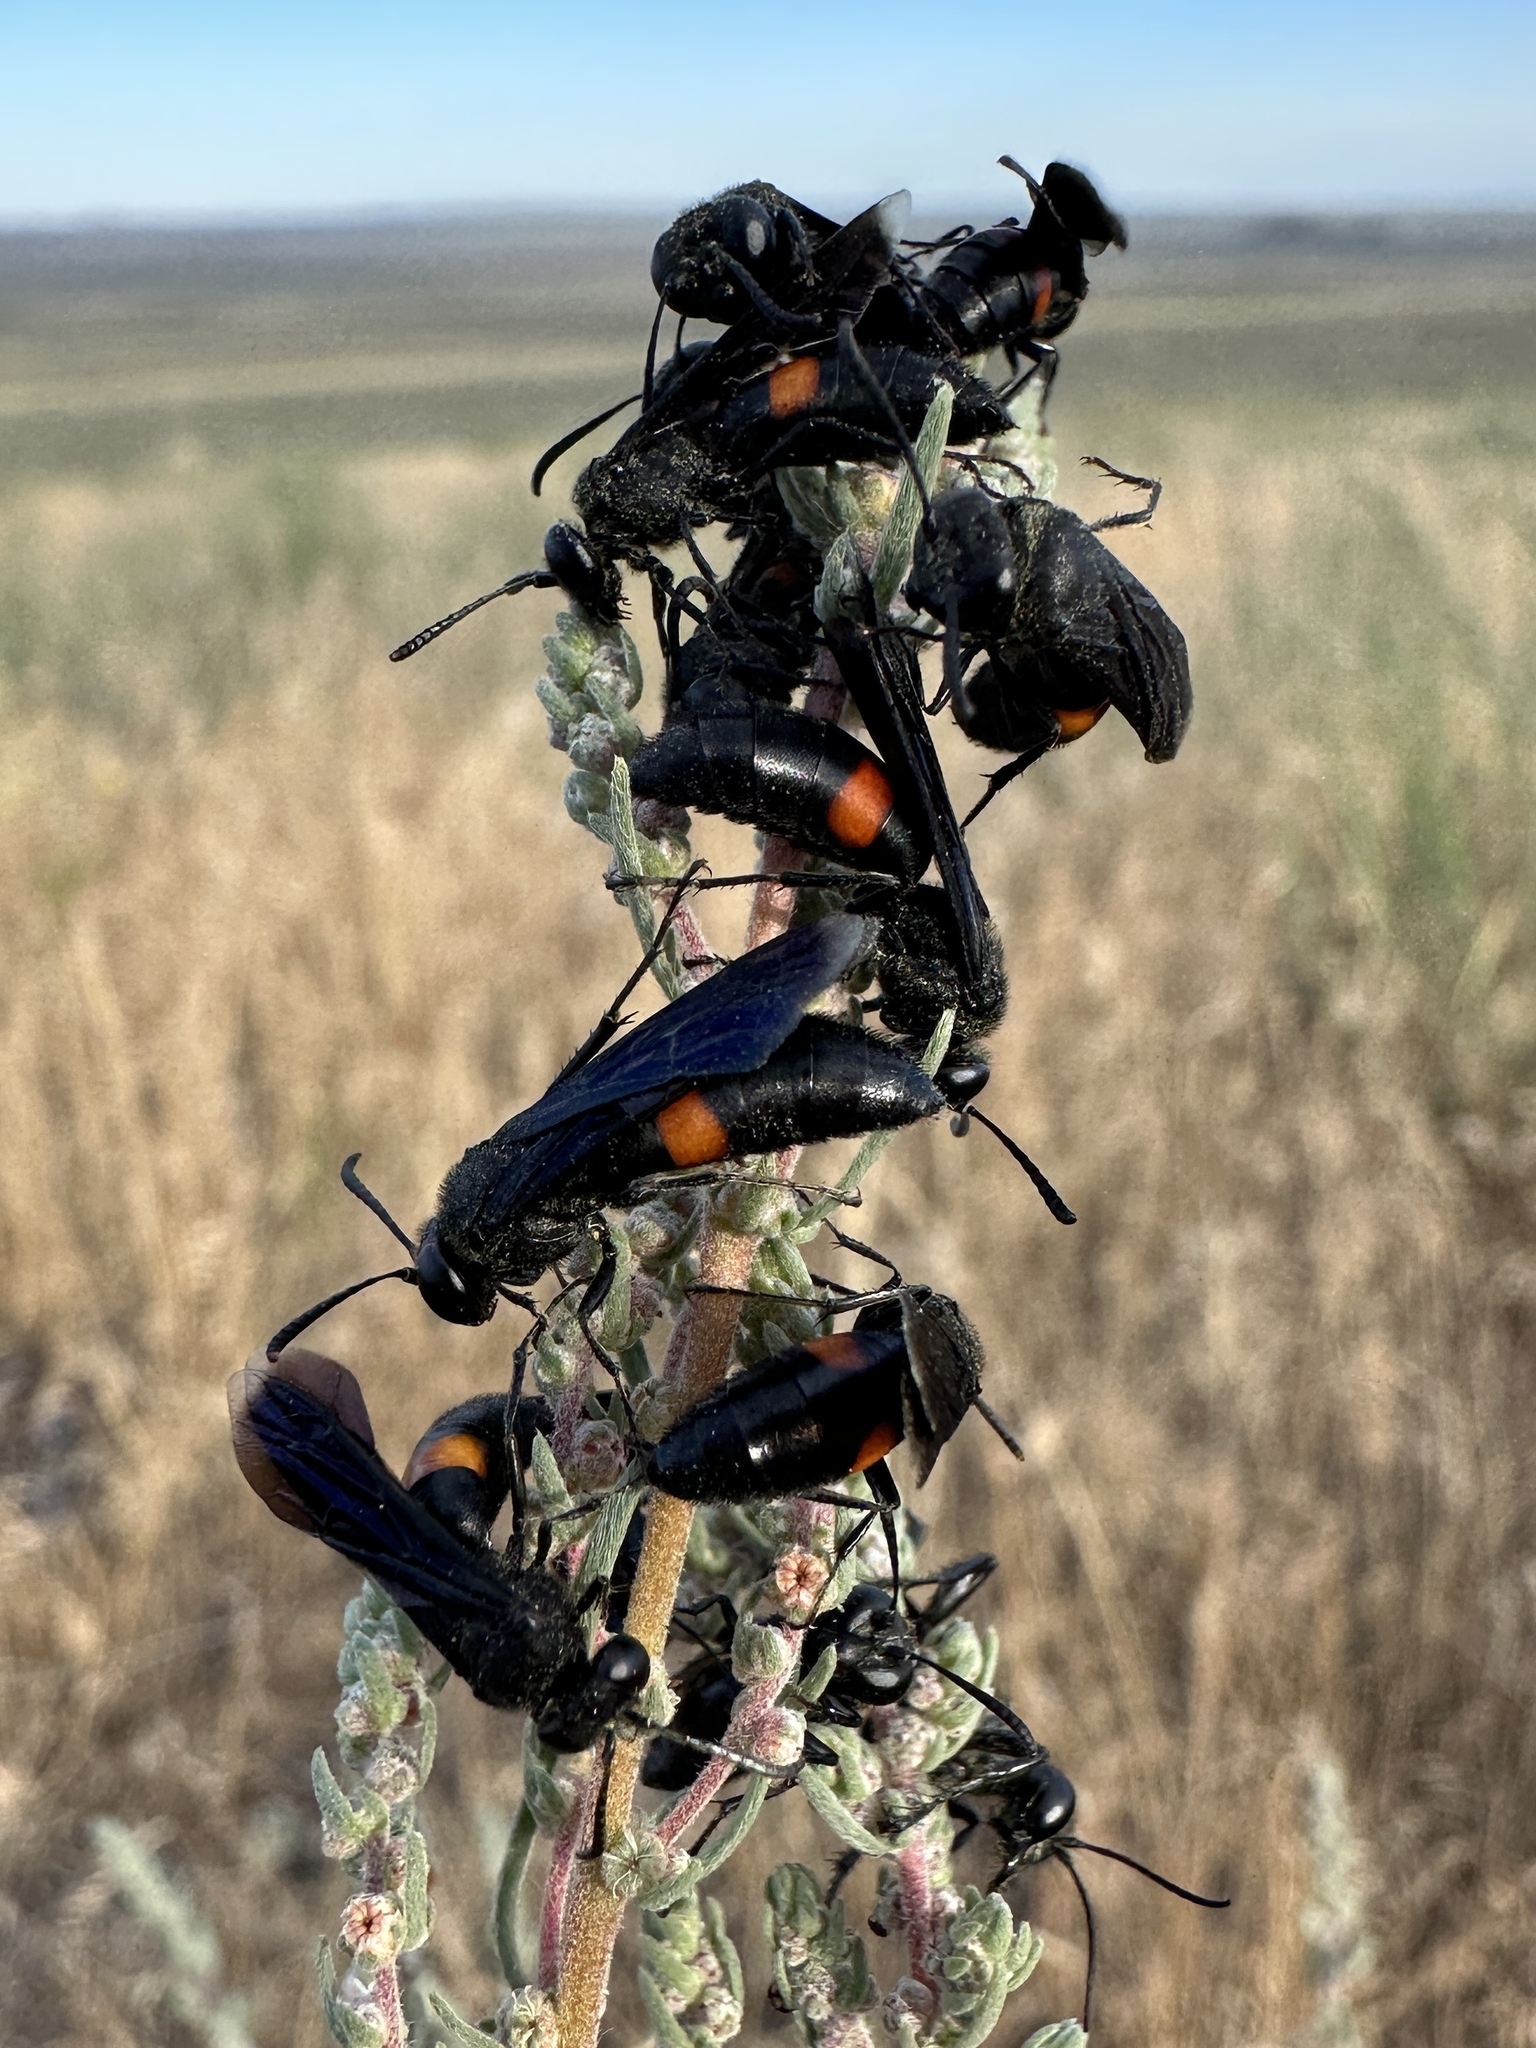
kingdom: Animalia
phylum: Arthropoda
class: Insecta
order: Hymenoptera
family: Crabronidae
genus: Stizoides
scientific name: Stizoides renicinctus
